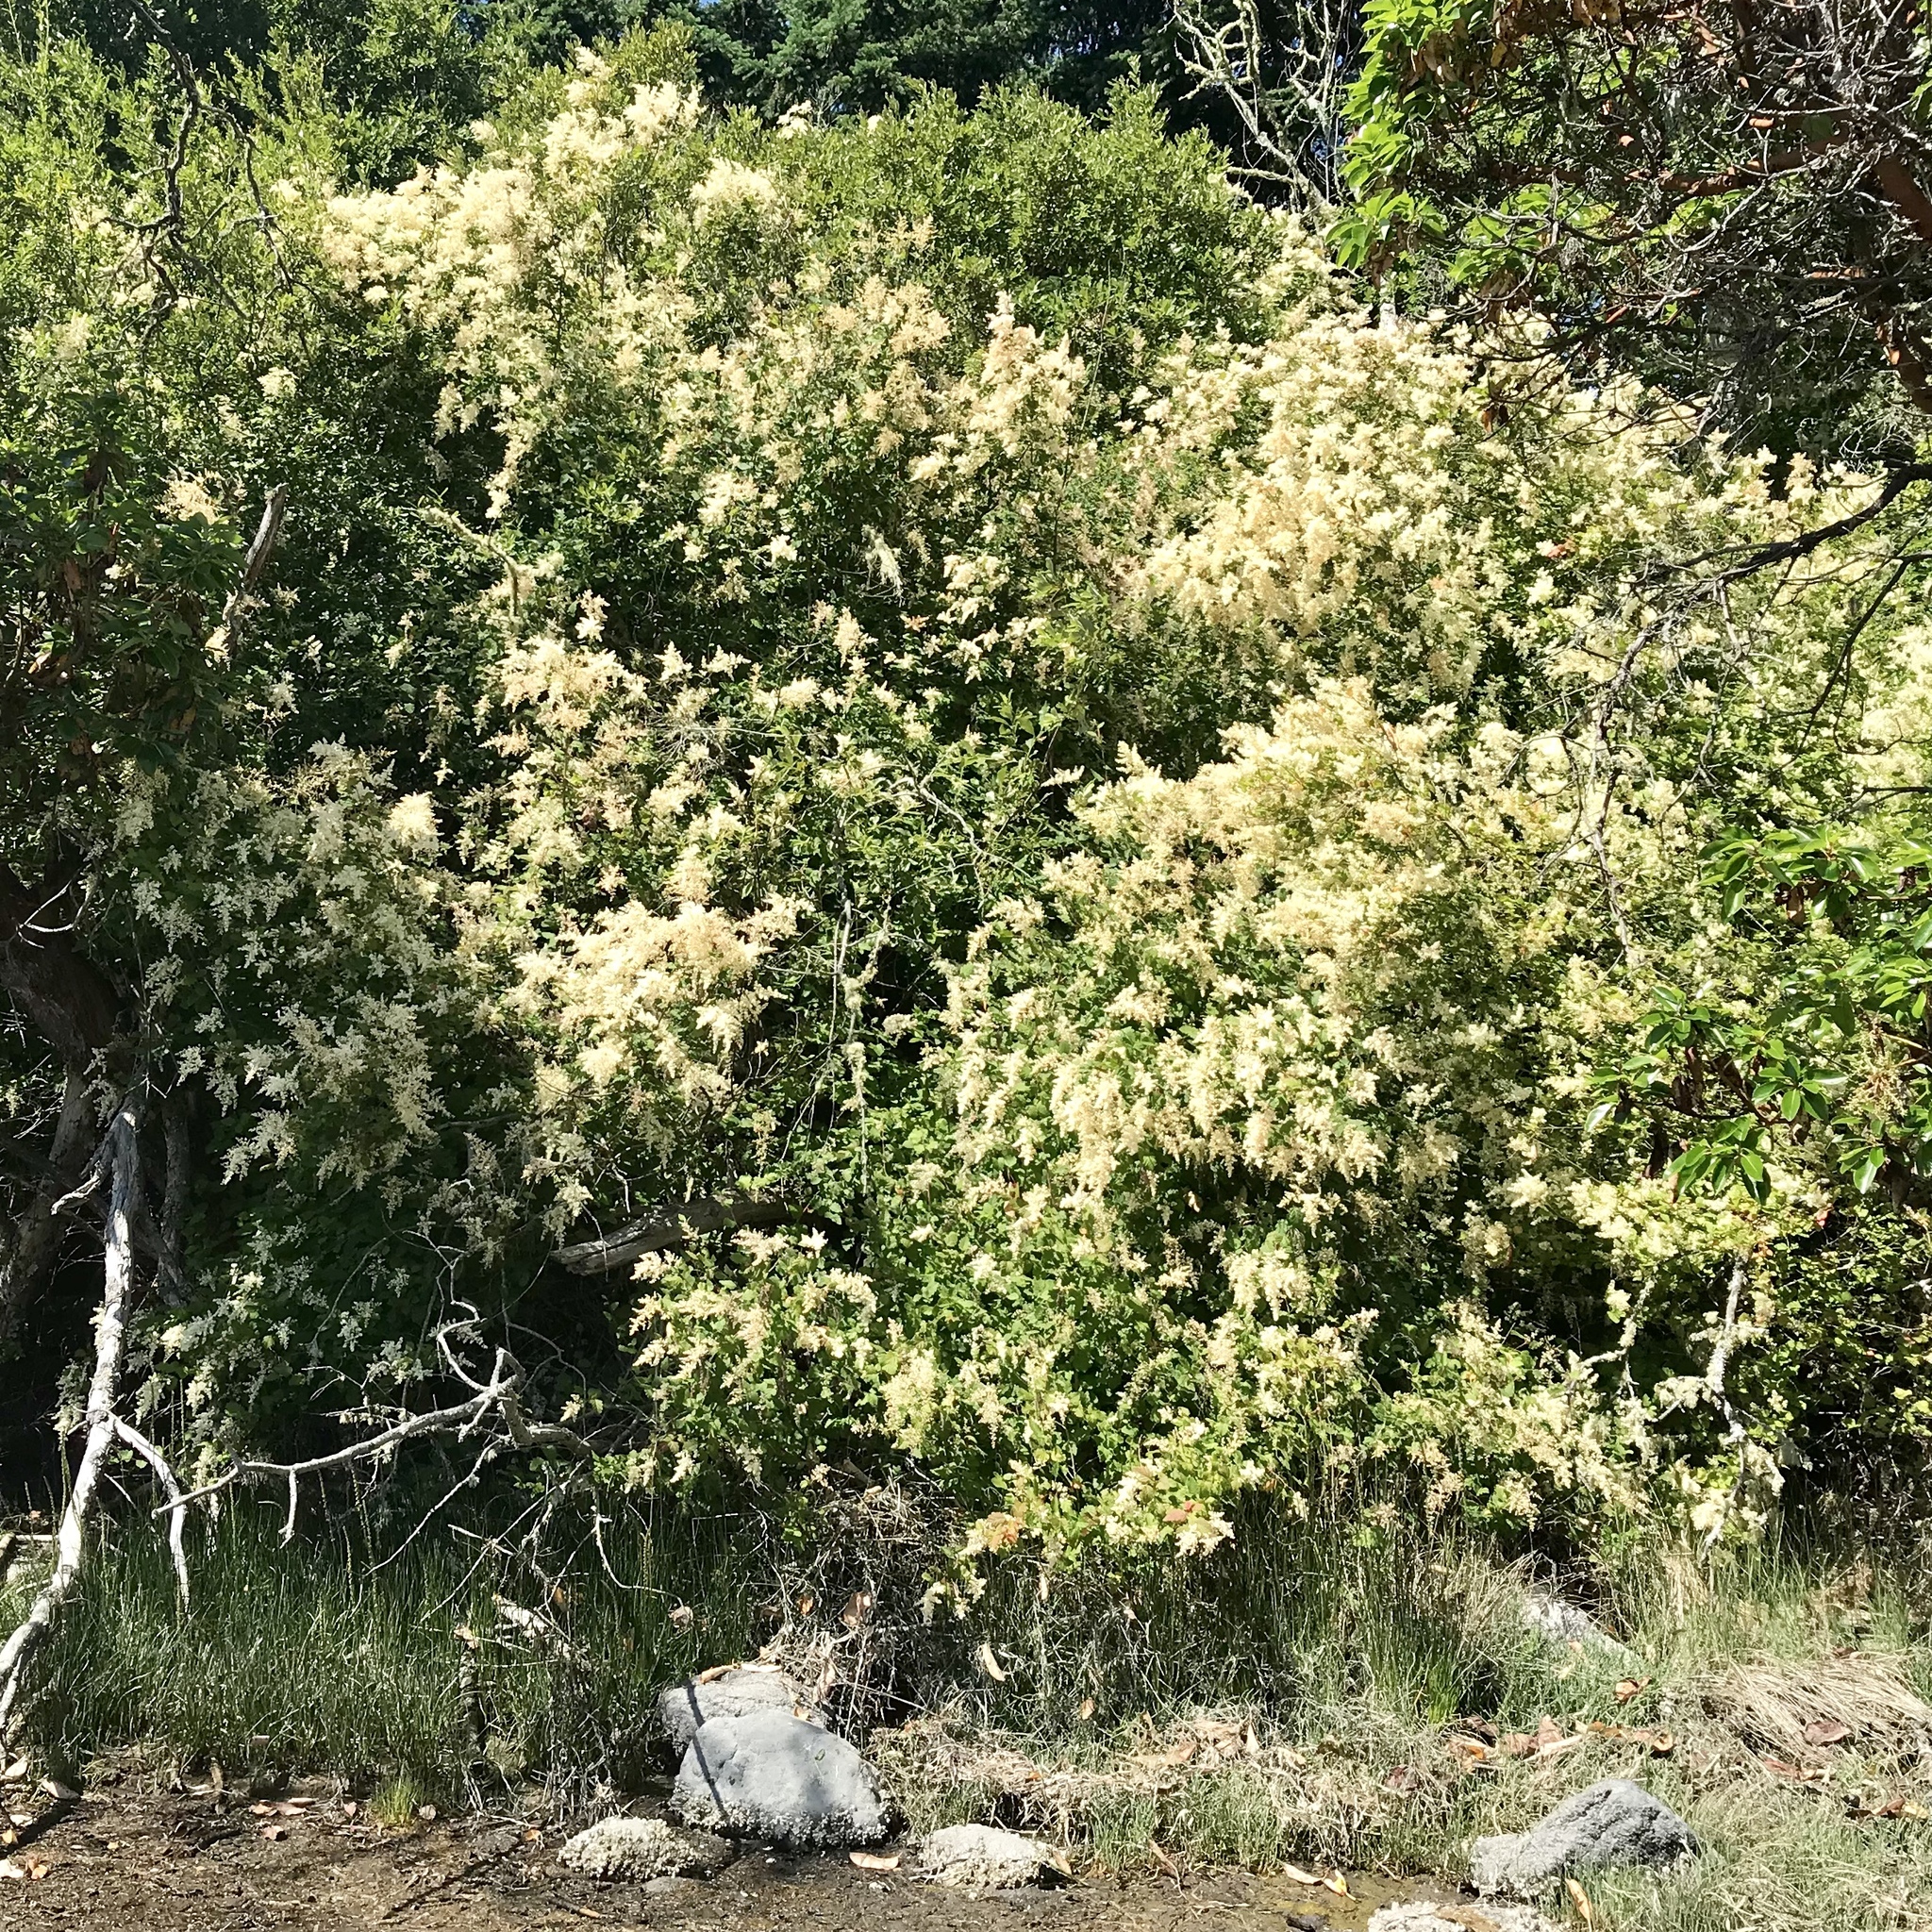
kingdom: Plantae
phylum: Tracheophyta
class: Magnoliopsida
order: Rosales
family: Rosaceae
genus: Holodiscus
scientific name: Holodiscus discolor
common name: Oceanspray
